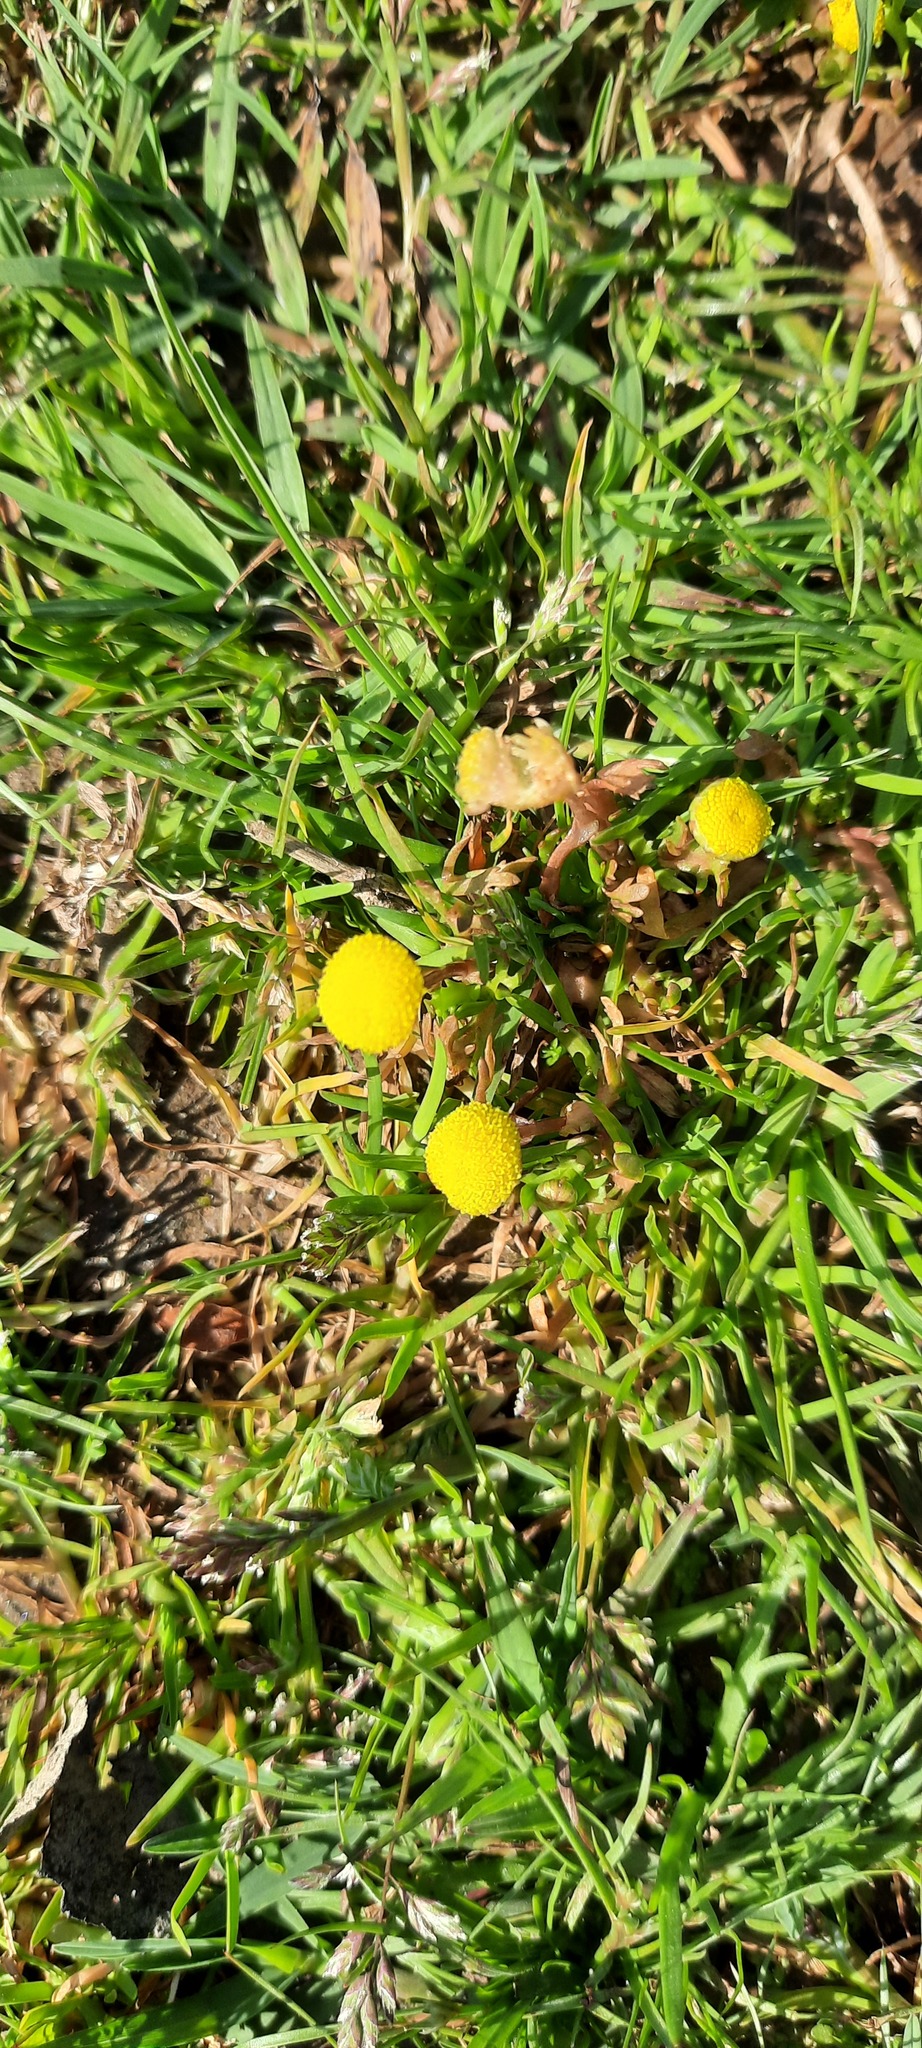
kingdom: Plantae
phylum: Tracheophyta
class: Magnoliopsida
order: Asterales
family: Asteraceae
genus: Cotula
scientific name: Cotula coronopifolia
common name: Buttonweed
